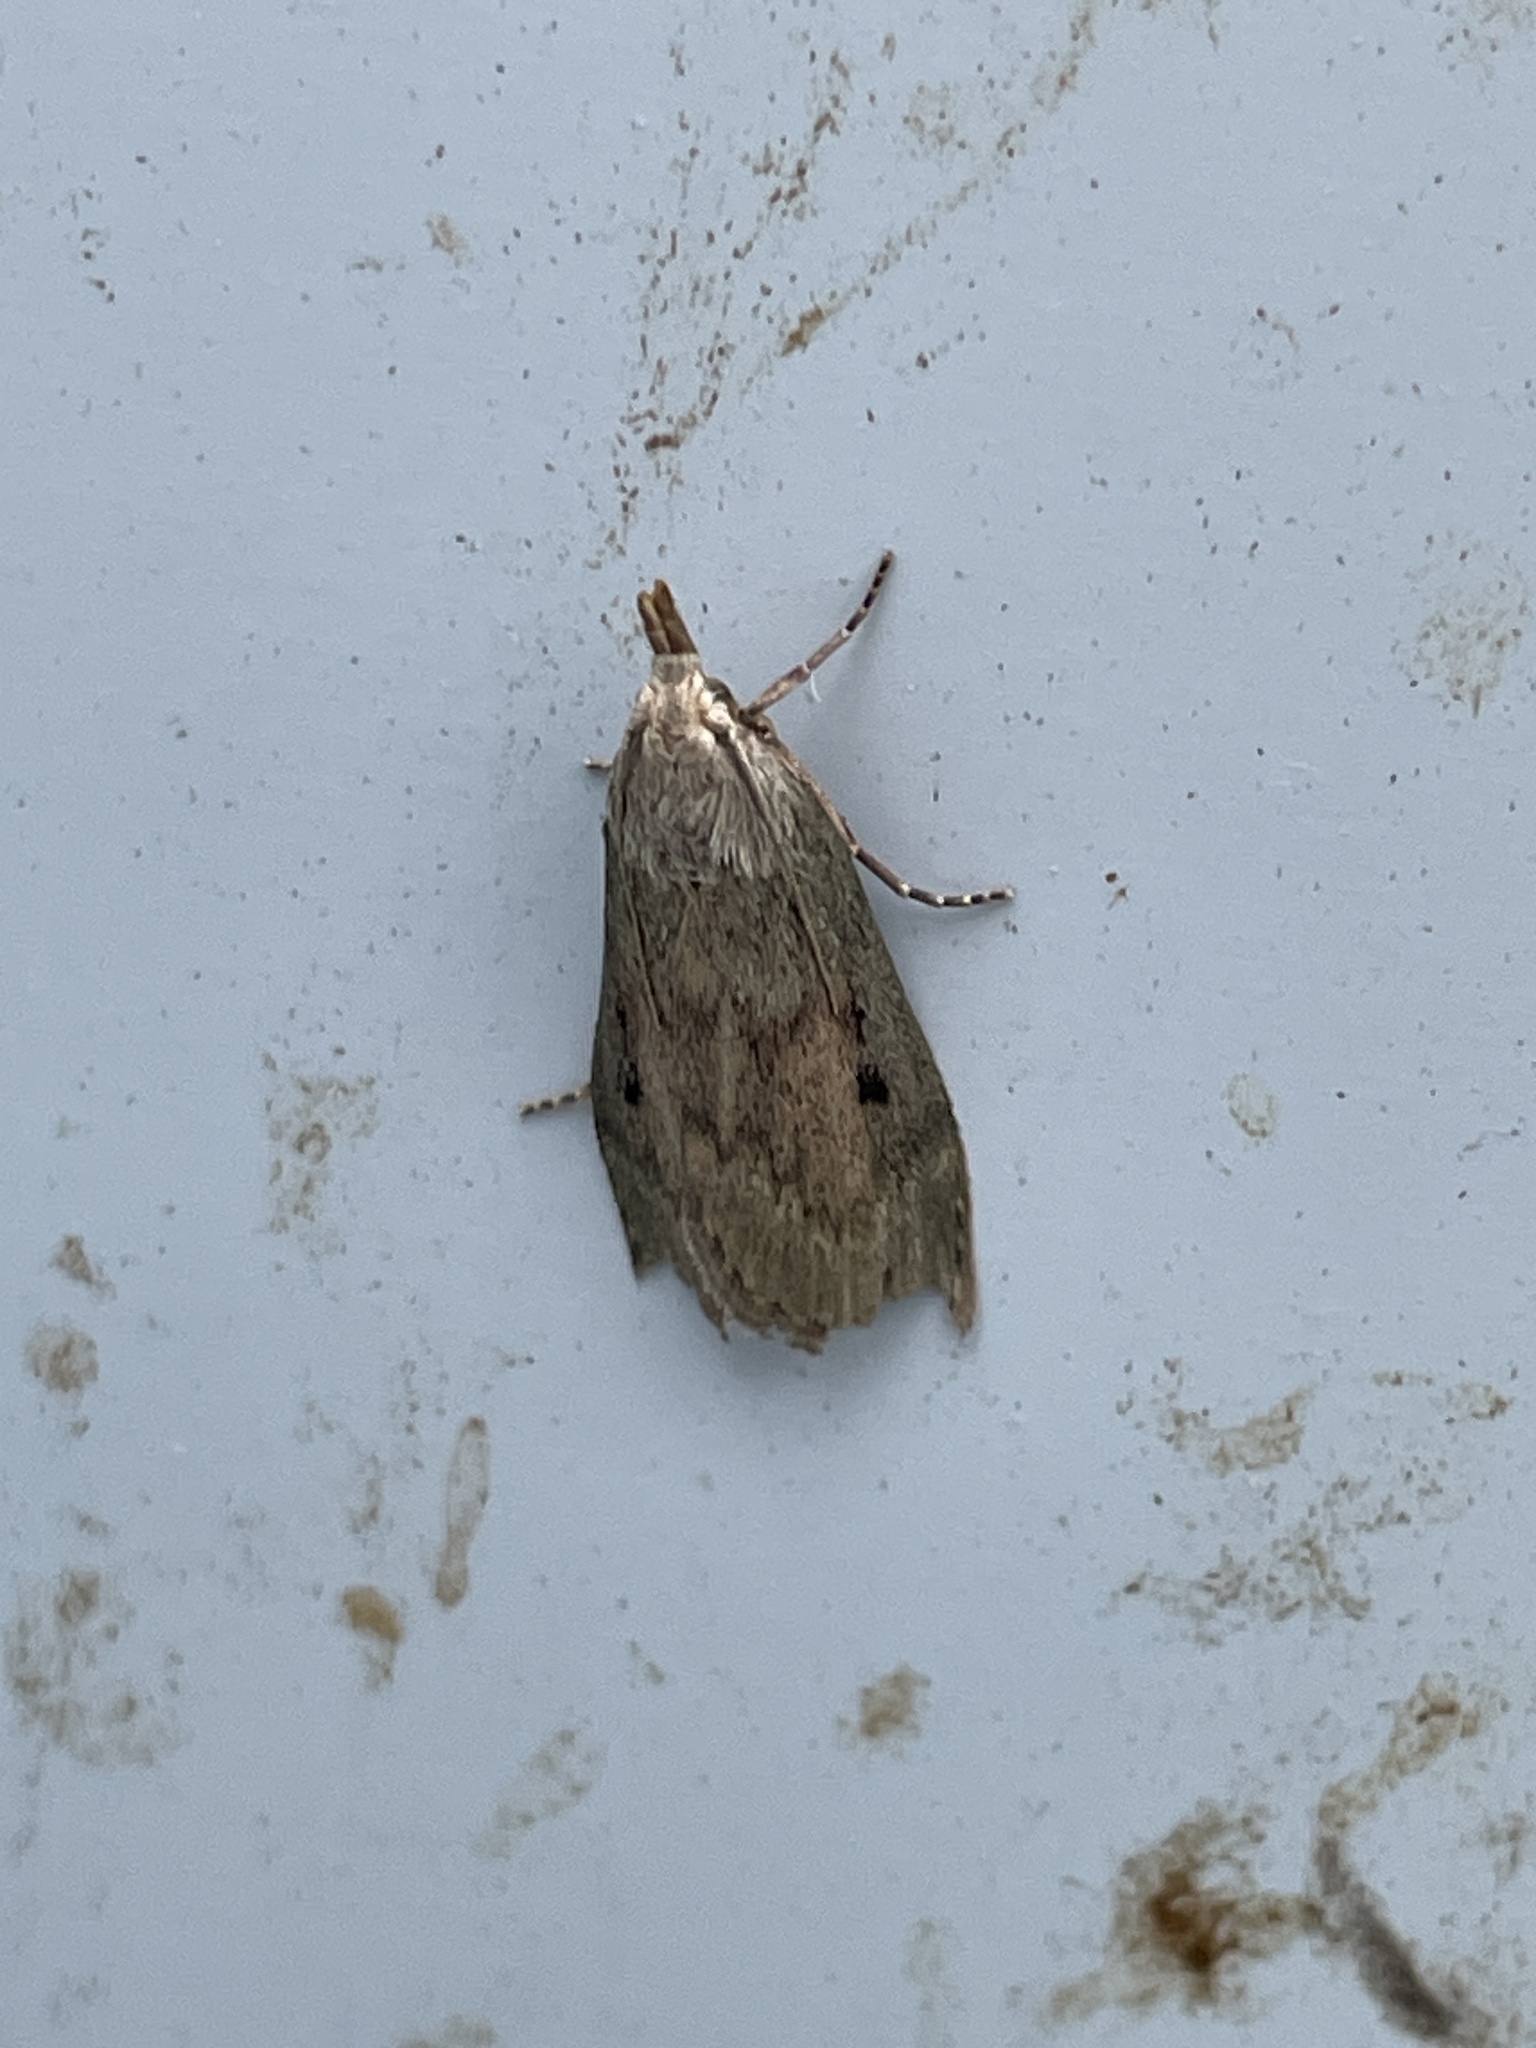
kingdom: Animalia
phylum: Arthropoda
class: Insecta
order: Lepidoptera
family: Pyralidae
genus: Aphomia
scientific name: Aphomia sociella
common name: Bee moth
